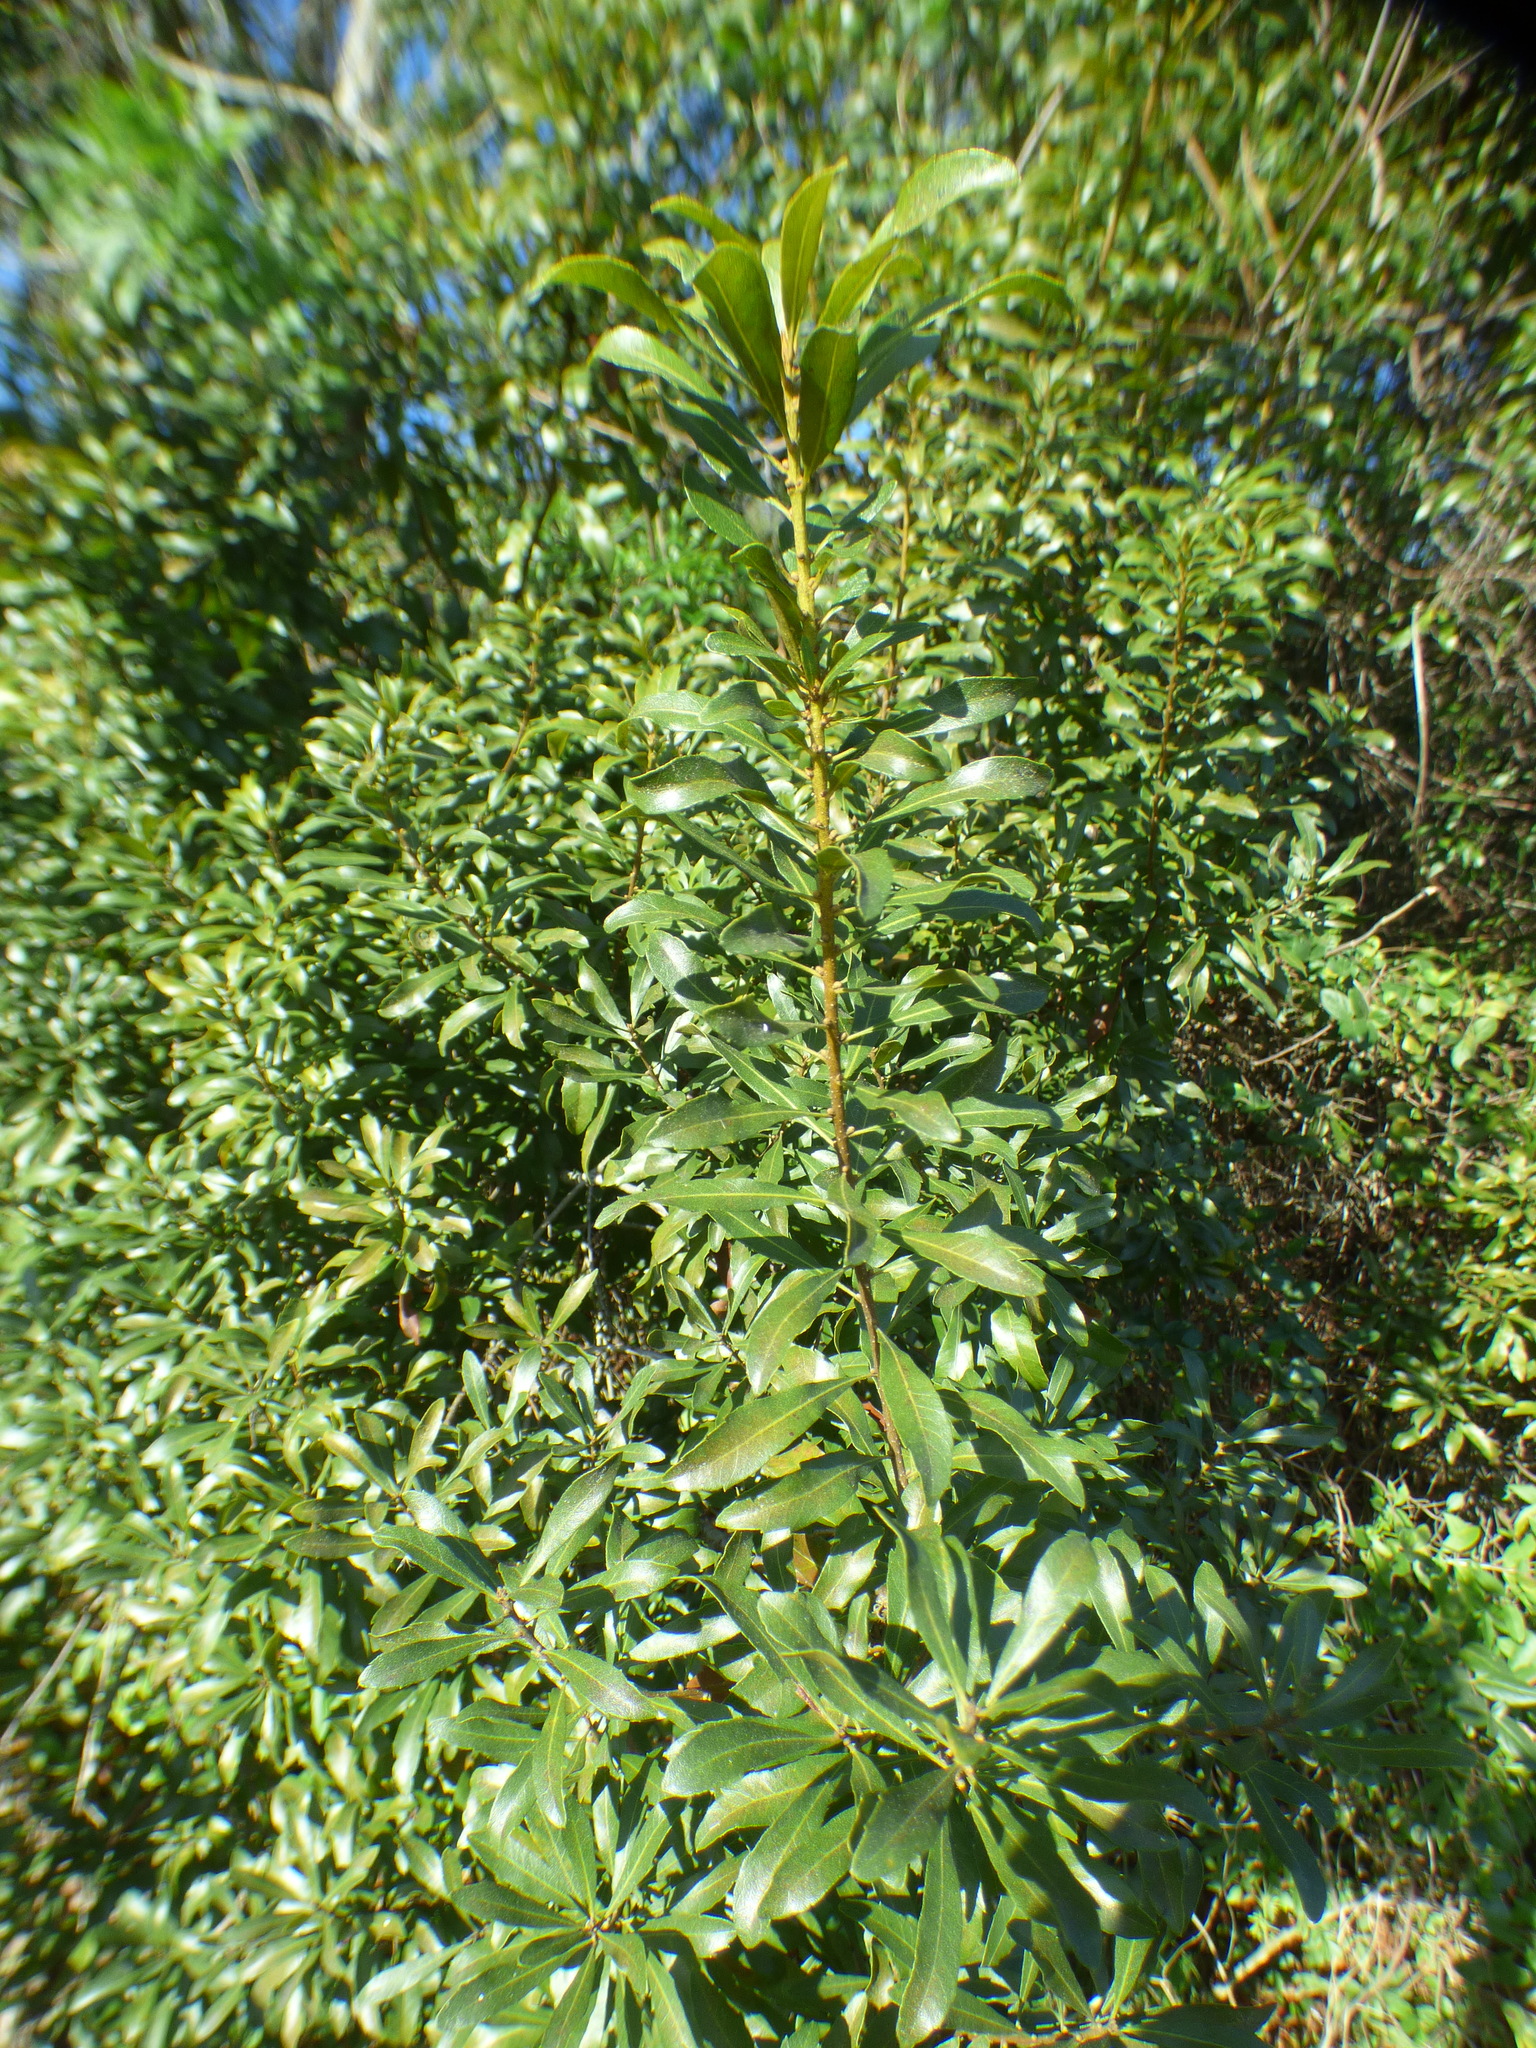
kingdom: Plantae
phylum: Tracheophyta
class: Magnoliopsida
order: Fagales
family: Myricaceae
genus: Morella
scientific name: Morella cerifera
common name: Wax myrtle
